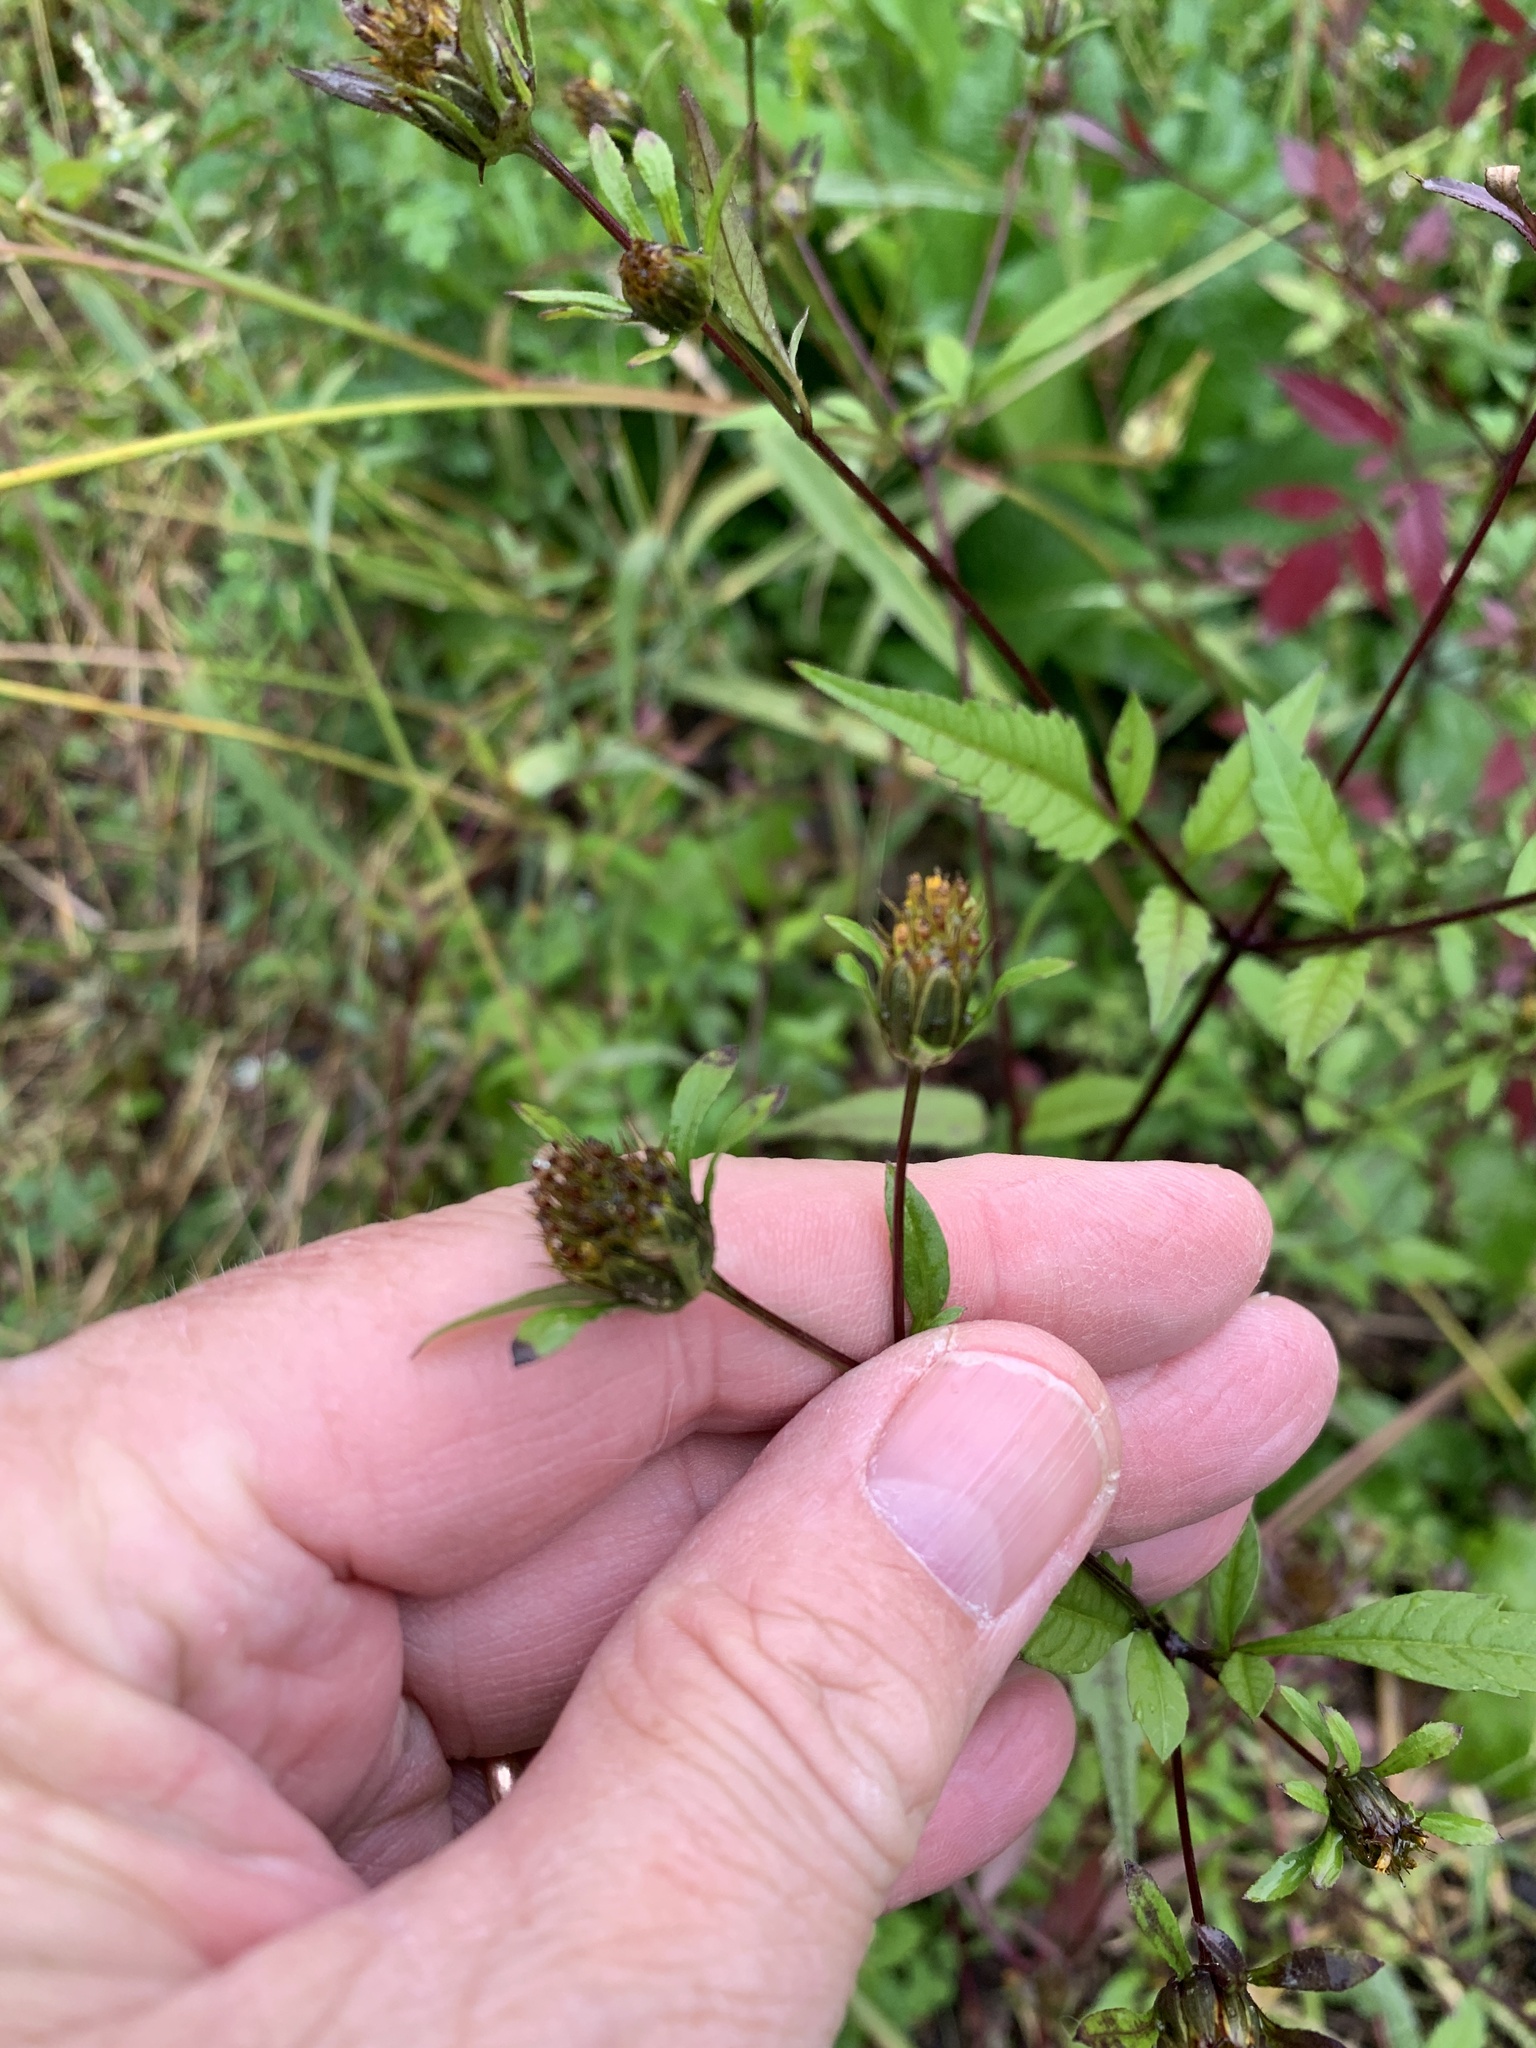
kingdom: Plantae
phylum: Tracheophyta
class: Magnoliopsida
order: Asterales
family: Asteraceae
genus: Bidens
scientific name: Bidens frondosa
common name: Beggarticks
